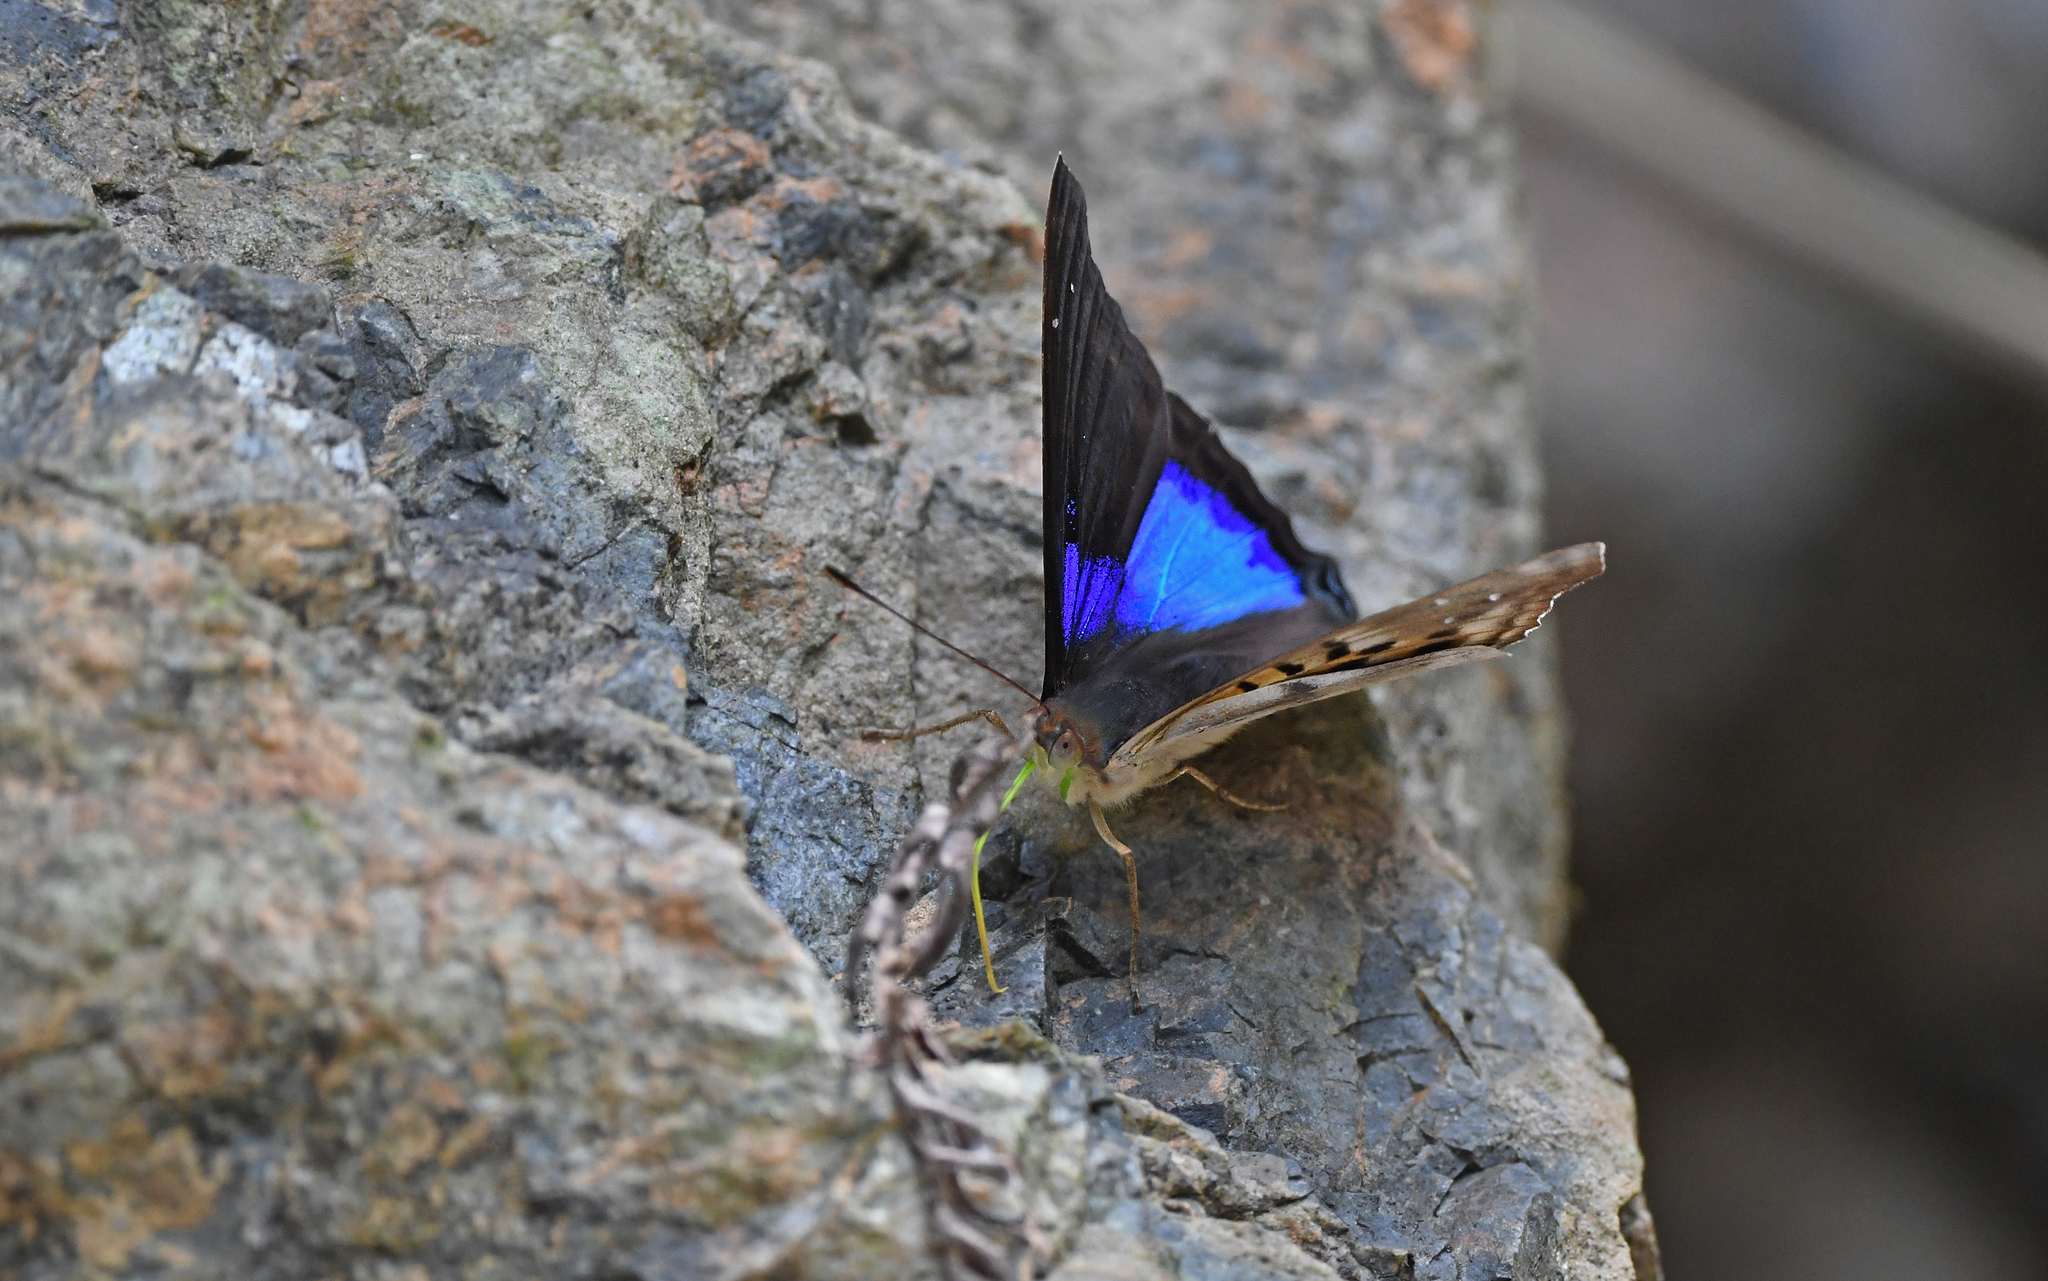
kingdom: Animalia
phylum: Arthropoda
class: Insecta
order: Lepidoptera
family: Nymphalidae
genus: Doxocopa
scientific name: Doxocopa cyane
